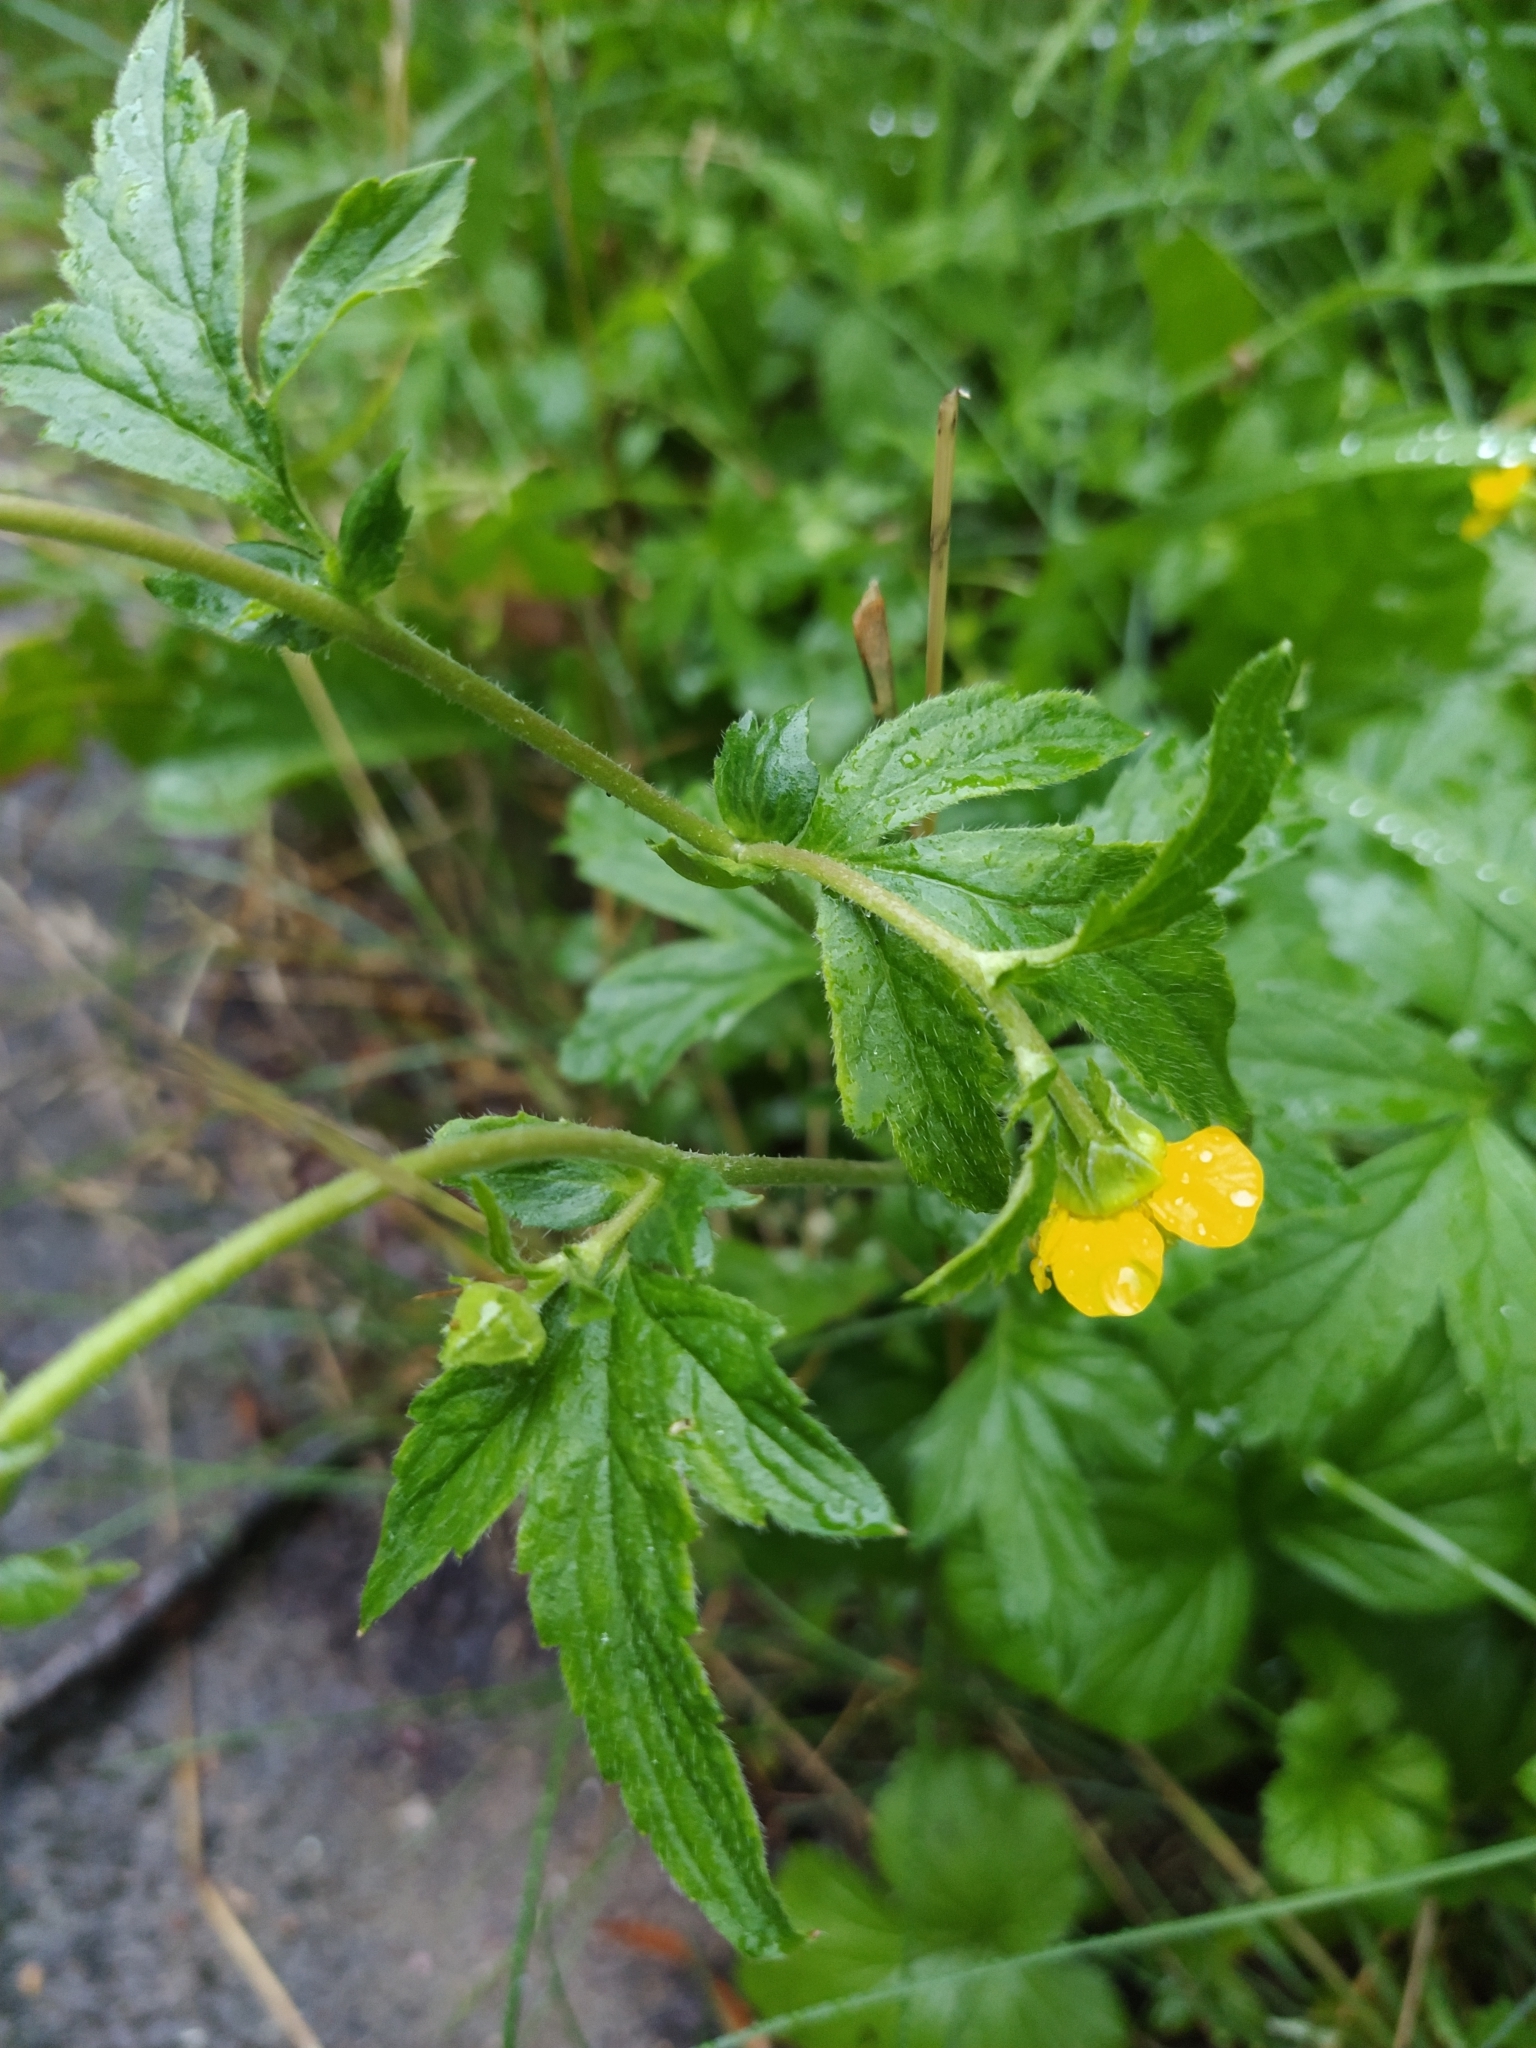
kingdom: Plantae
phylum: Tracheophyta
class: Magnoliopsida
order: Rosales
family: Rosaceae
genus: Geum
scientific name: Geum aleppicum
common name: Yellow avens
